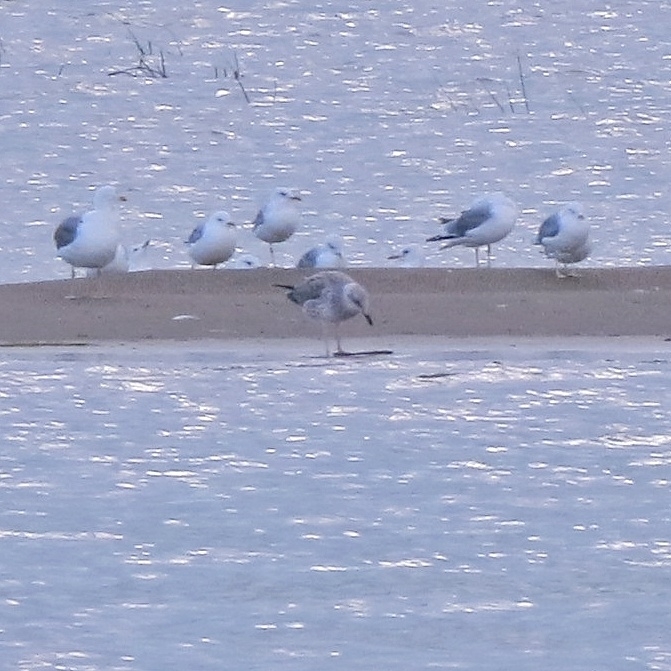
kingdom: Animalia
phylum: Chordata
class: Aves
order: Charadriiformes
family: Laridae
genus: Larus
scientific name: Larus fuscus
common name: Lesser black-backed gull
